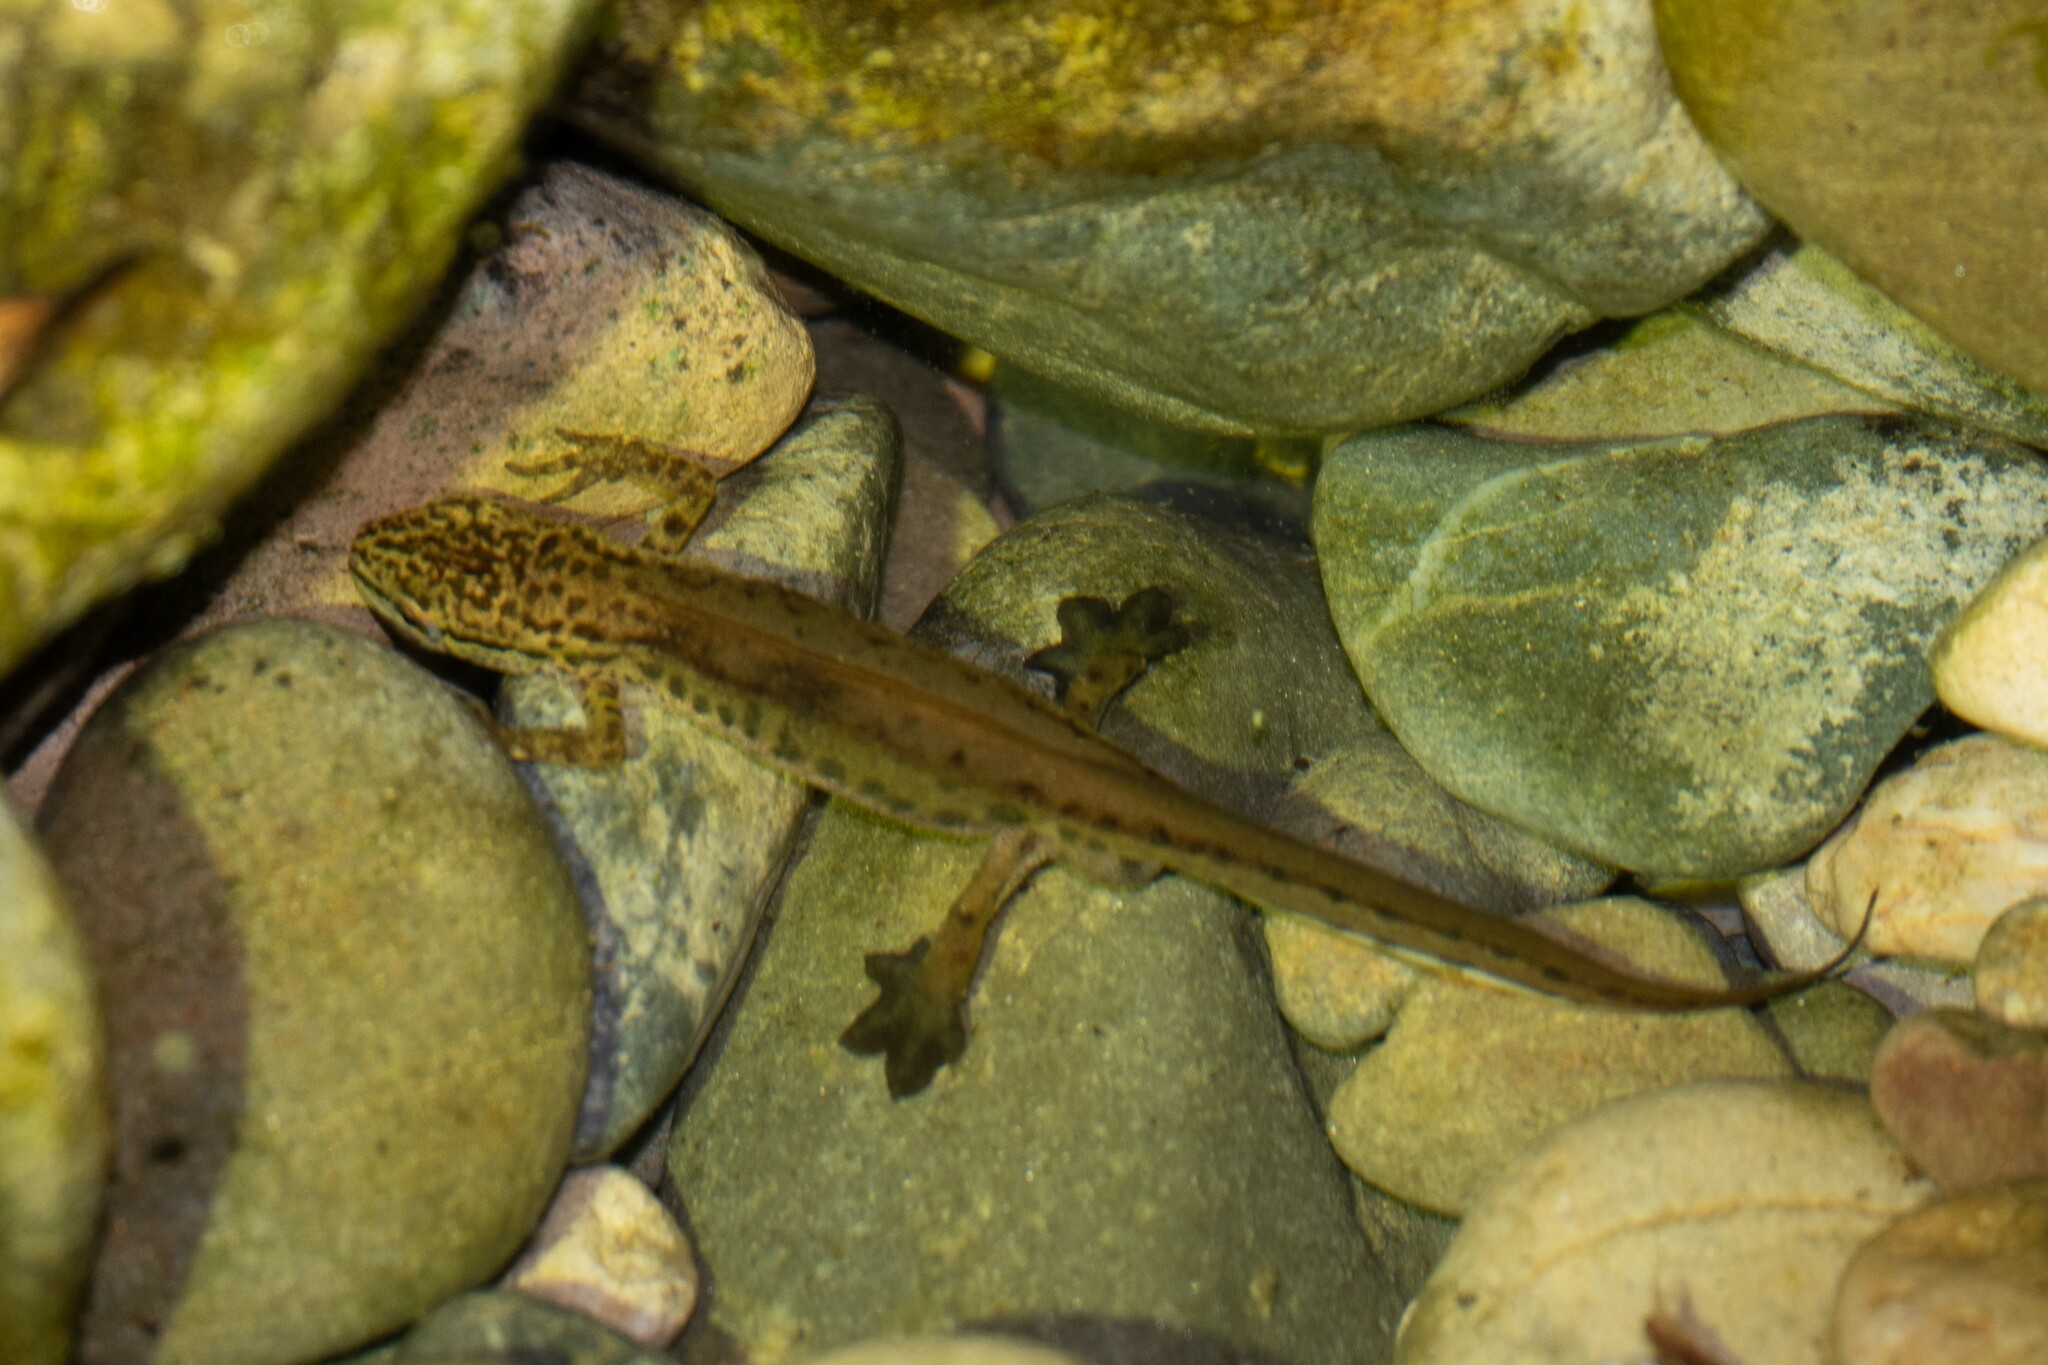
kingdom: Animalia
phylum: Chordata
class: Amphibia
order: Caudata
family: Salamandridae
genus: Lissotriton
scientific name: Lissotriton helveticus
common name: Palmate newt
